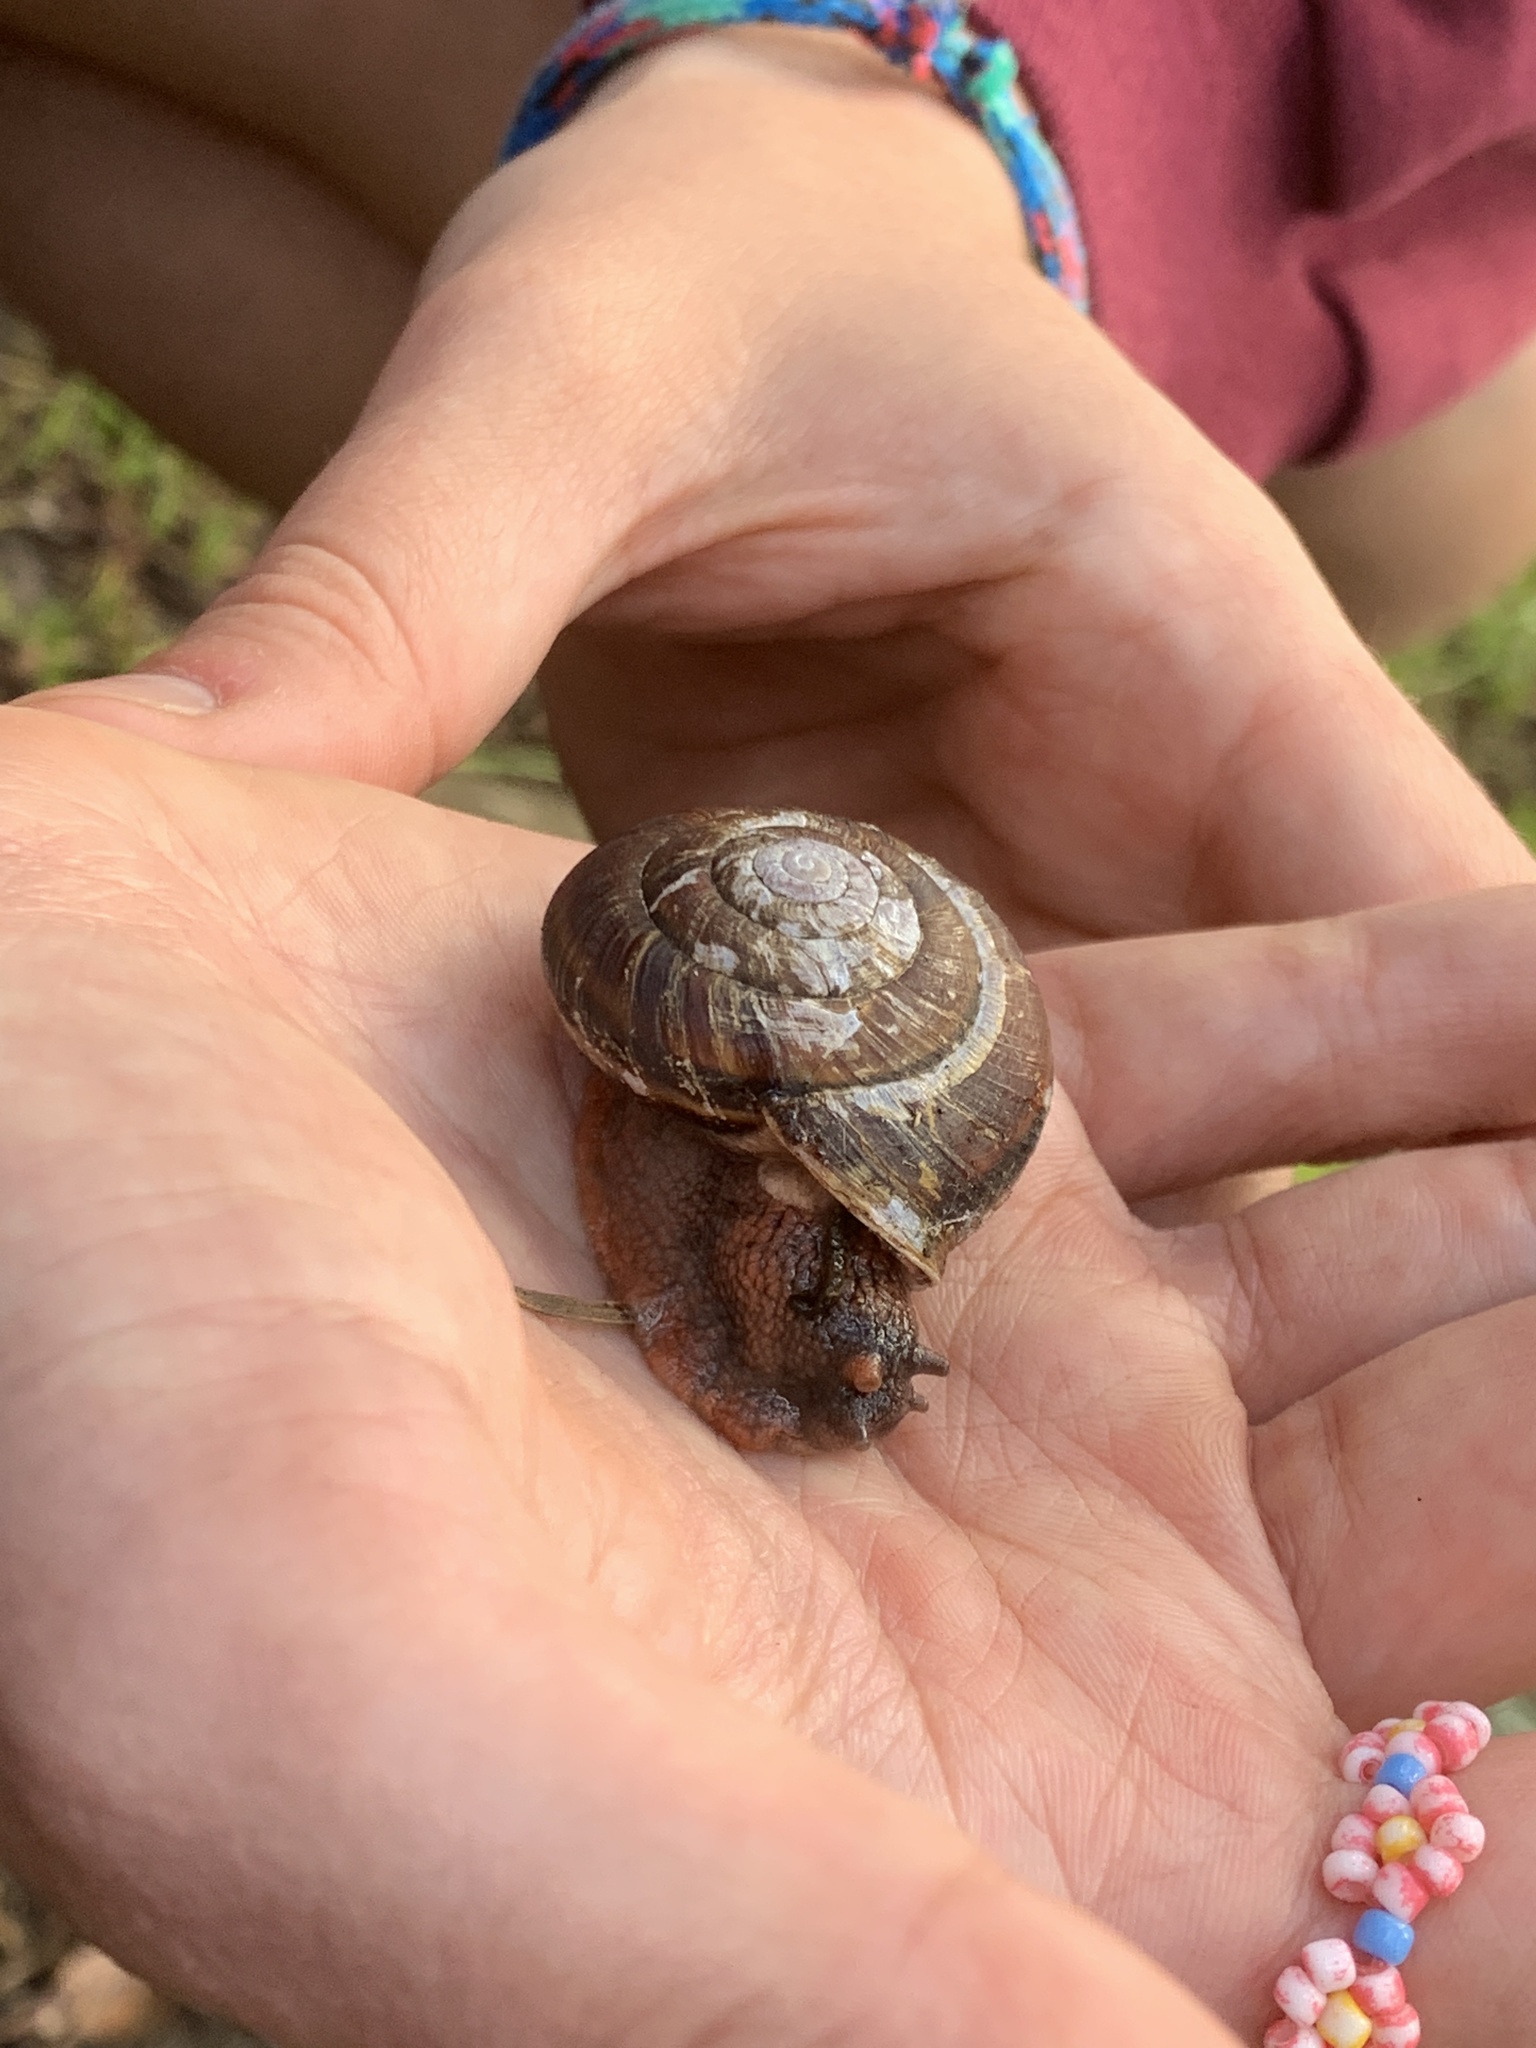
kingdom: Animalia
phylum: Mollusca
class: Gastropoda
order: Stylommatophora
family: Xanthonychidae
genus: Monadenia
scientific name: Monadenia fidelis
